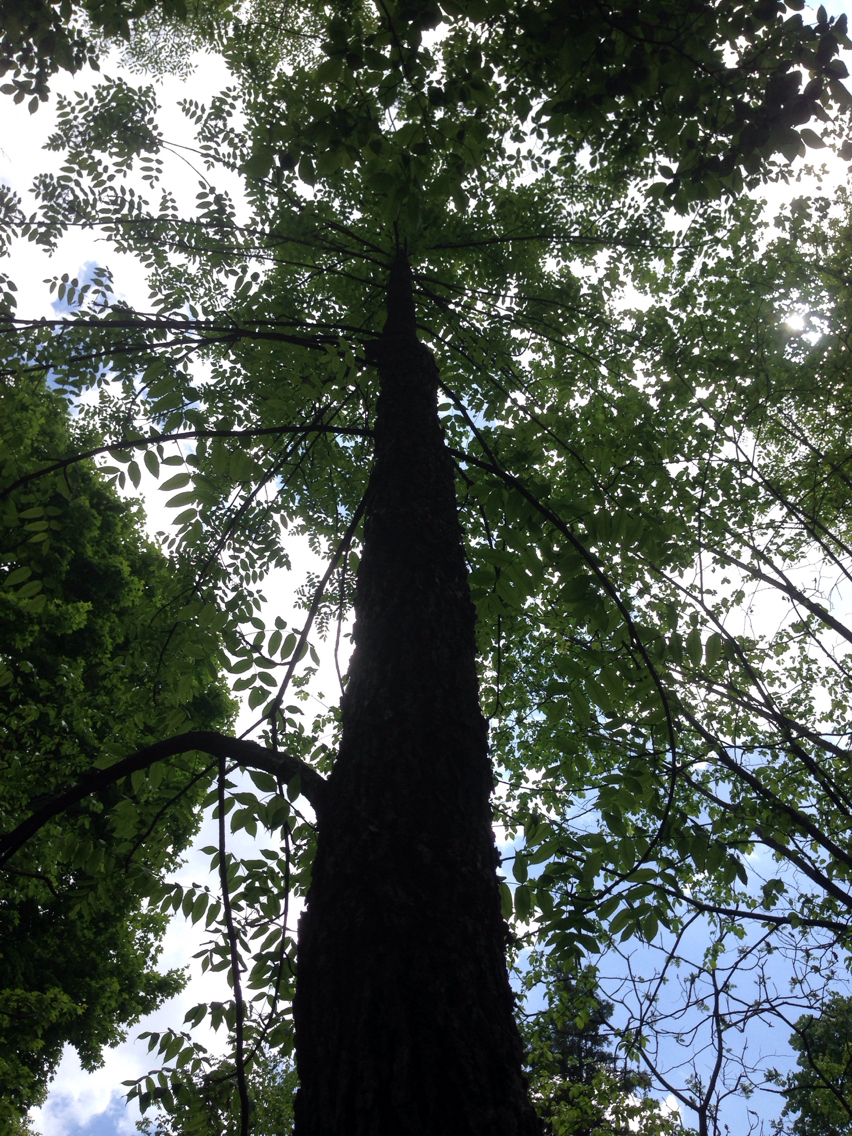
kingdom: Plantae
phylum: Tracheophyta
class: Magnoliopsida
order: Lamiales
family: Oleaceae
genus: Fraxinus
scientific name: Fraxinus nigra
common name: Black ash
